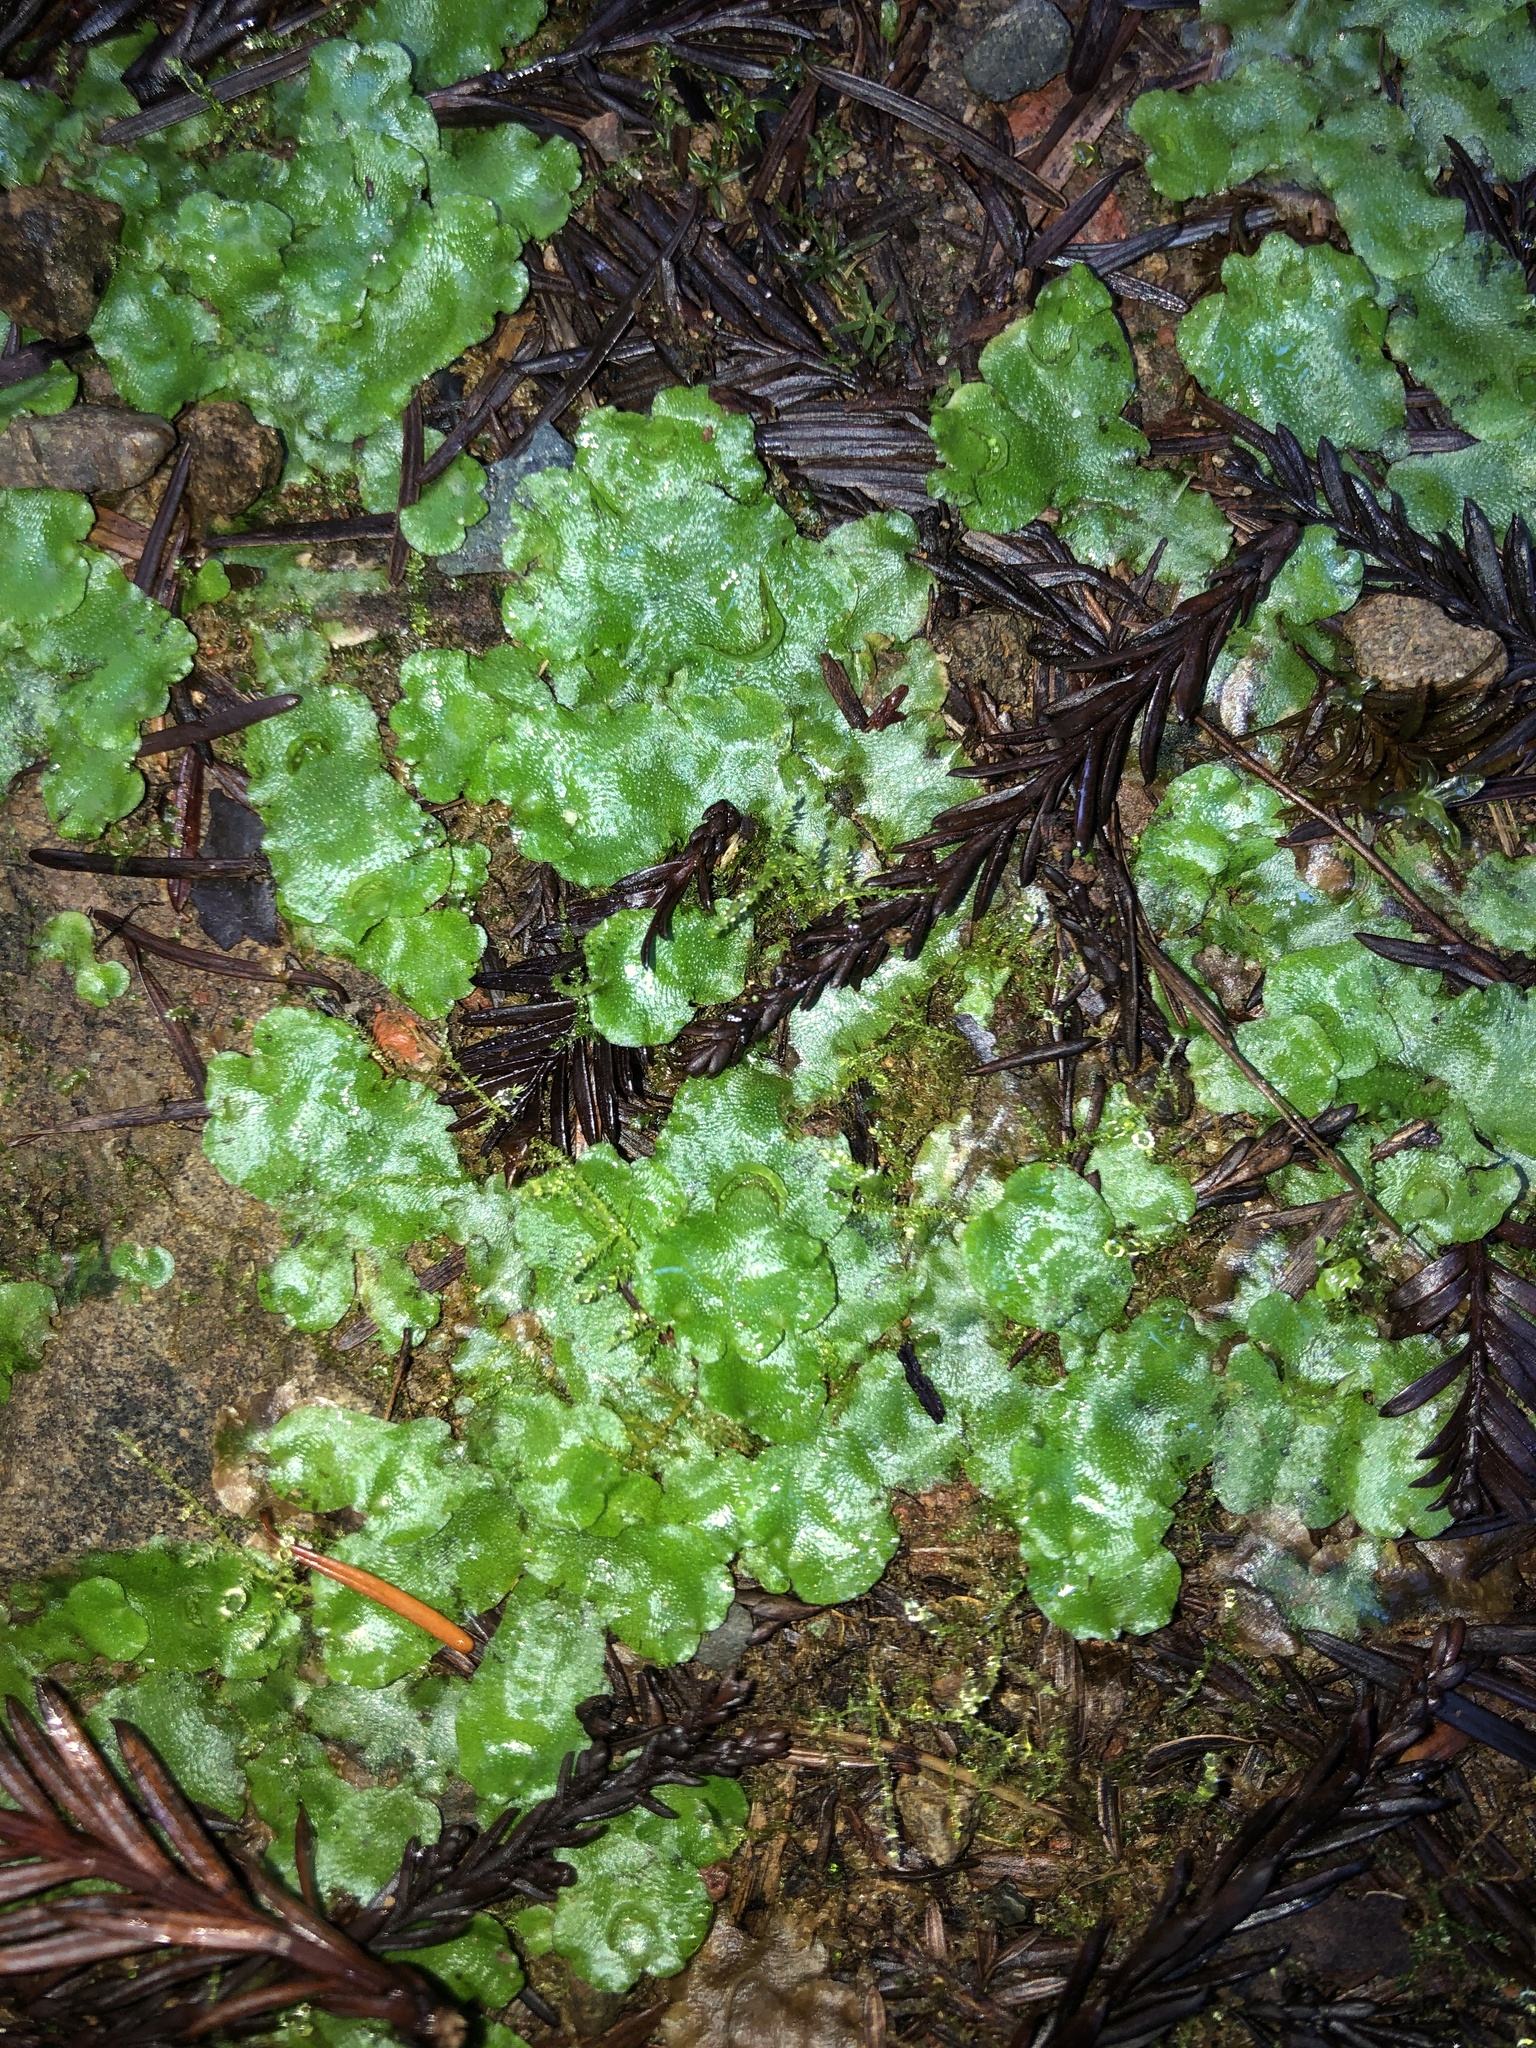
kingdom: Plantae
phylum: Marchantiophyta
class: Marchantiopsida
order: Lunulariales
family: Lunulariaceae
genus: Lunularia
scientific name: Lunularia cruciata
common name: Crescent-cup liverwort
